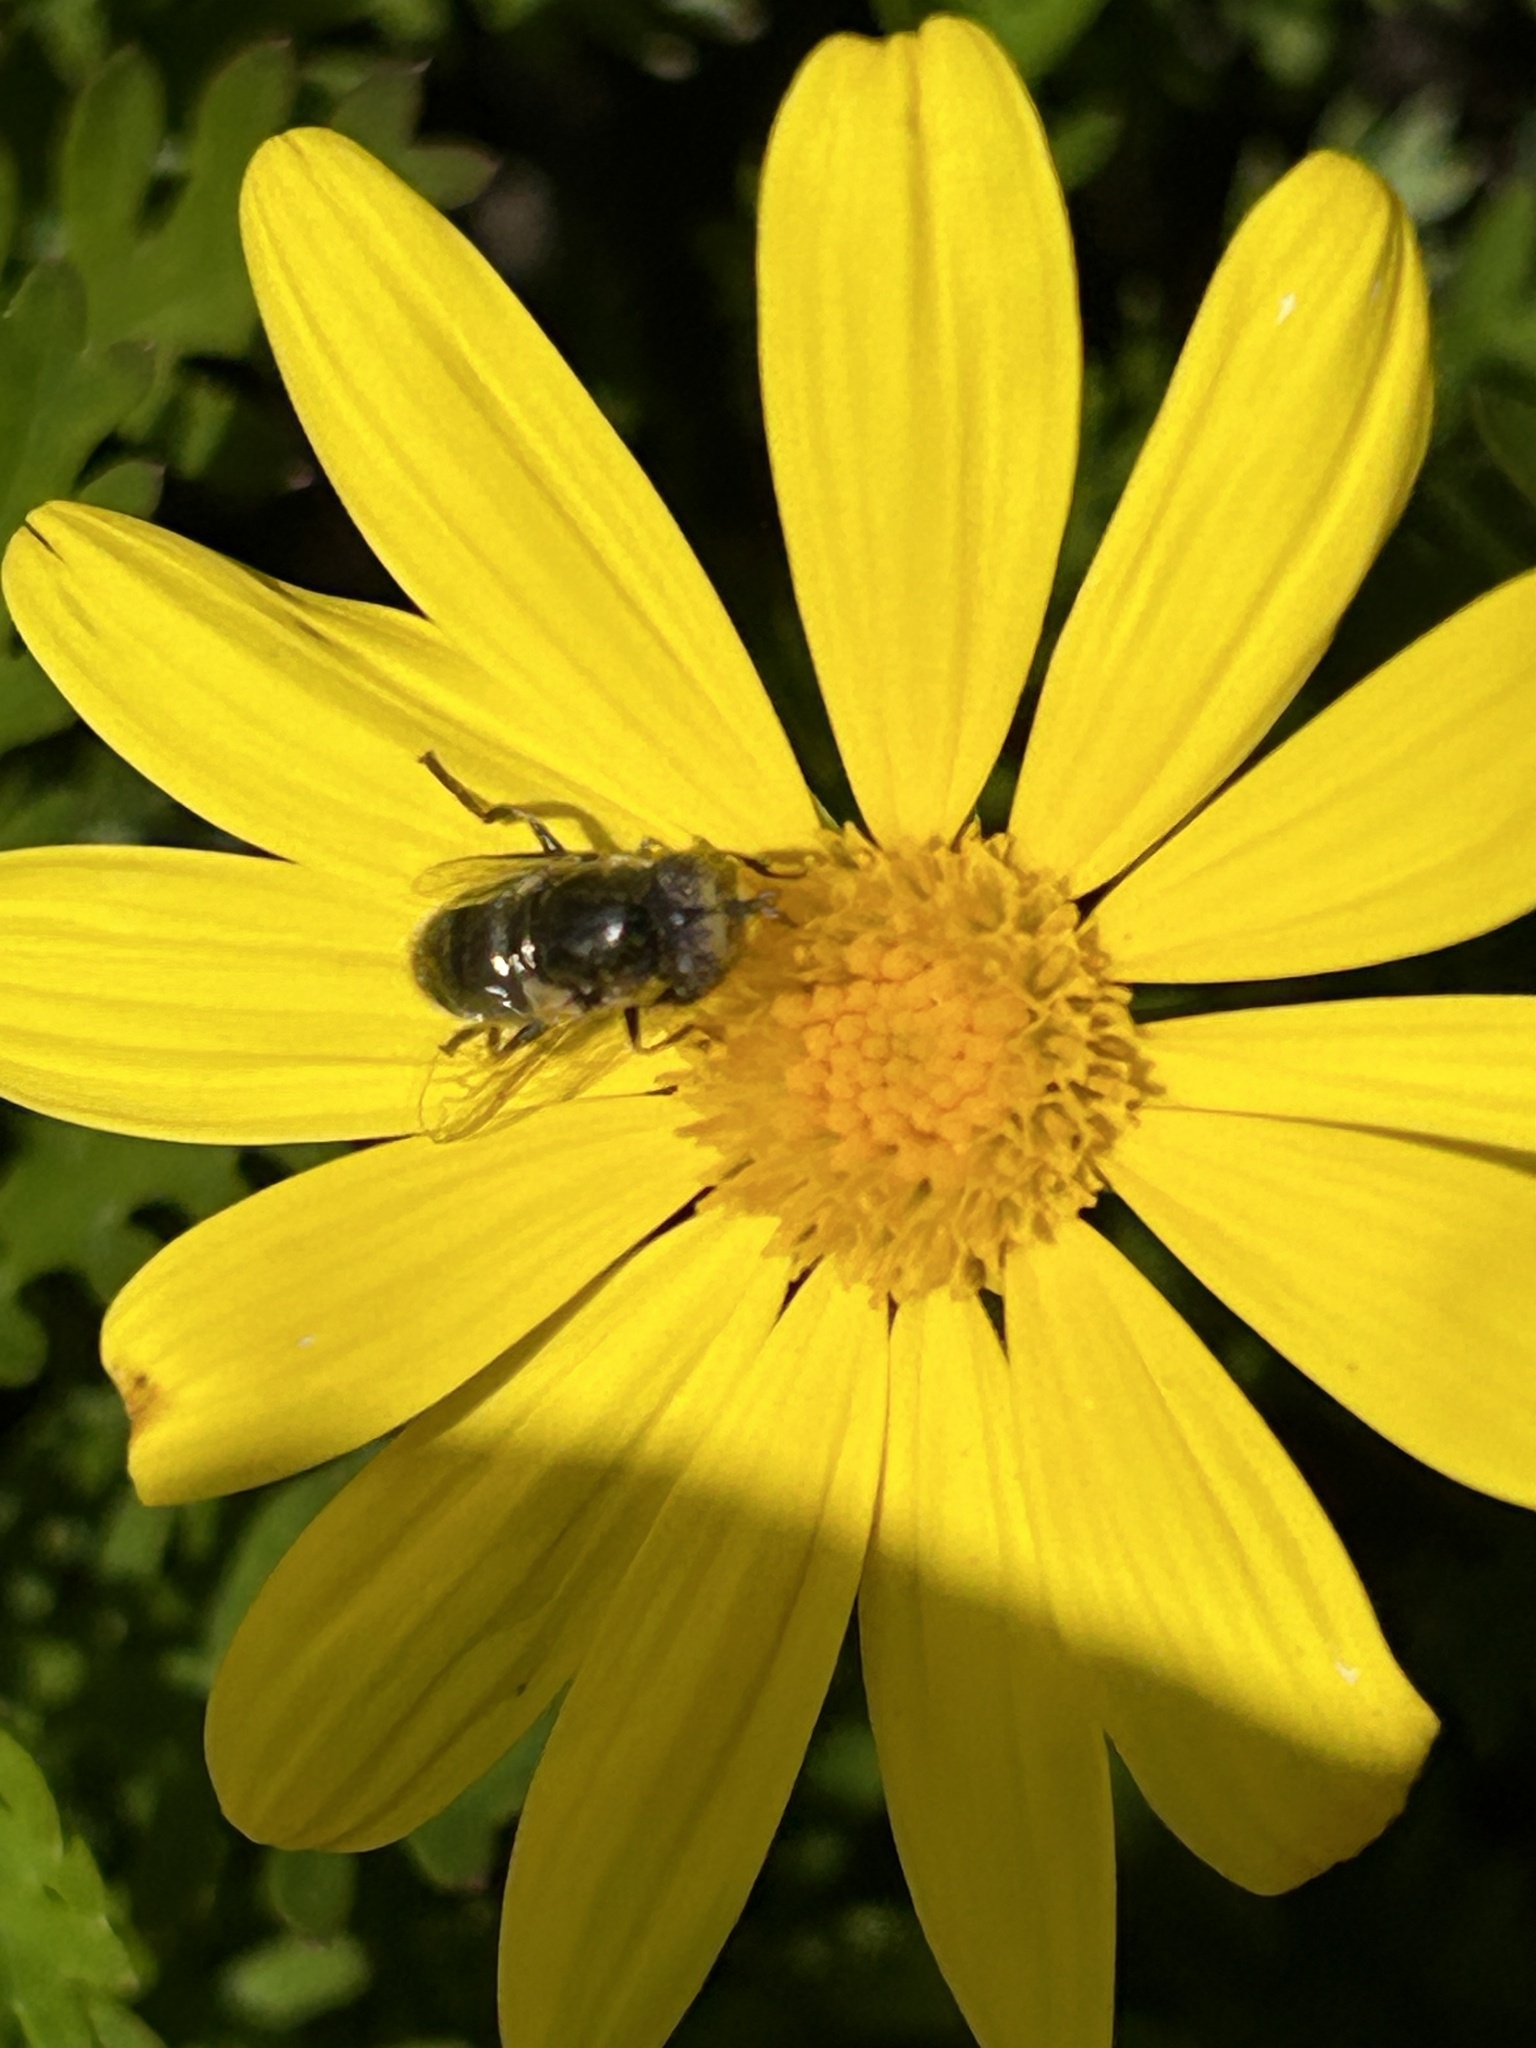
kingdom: Animalia
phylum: Arthropoda
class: Insecta
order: Diptera
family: Syrphidae
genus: Eristalinus
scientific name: Eristalinus aeneus
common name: Syrphid fly
